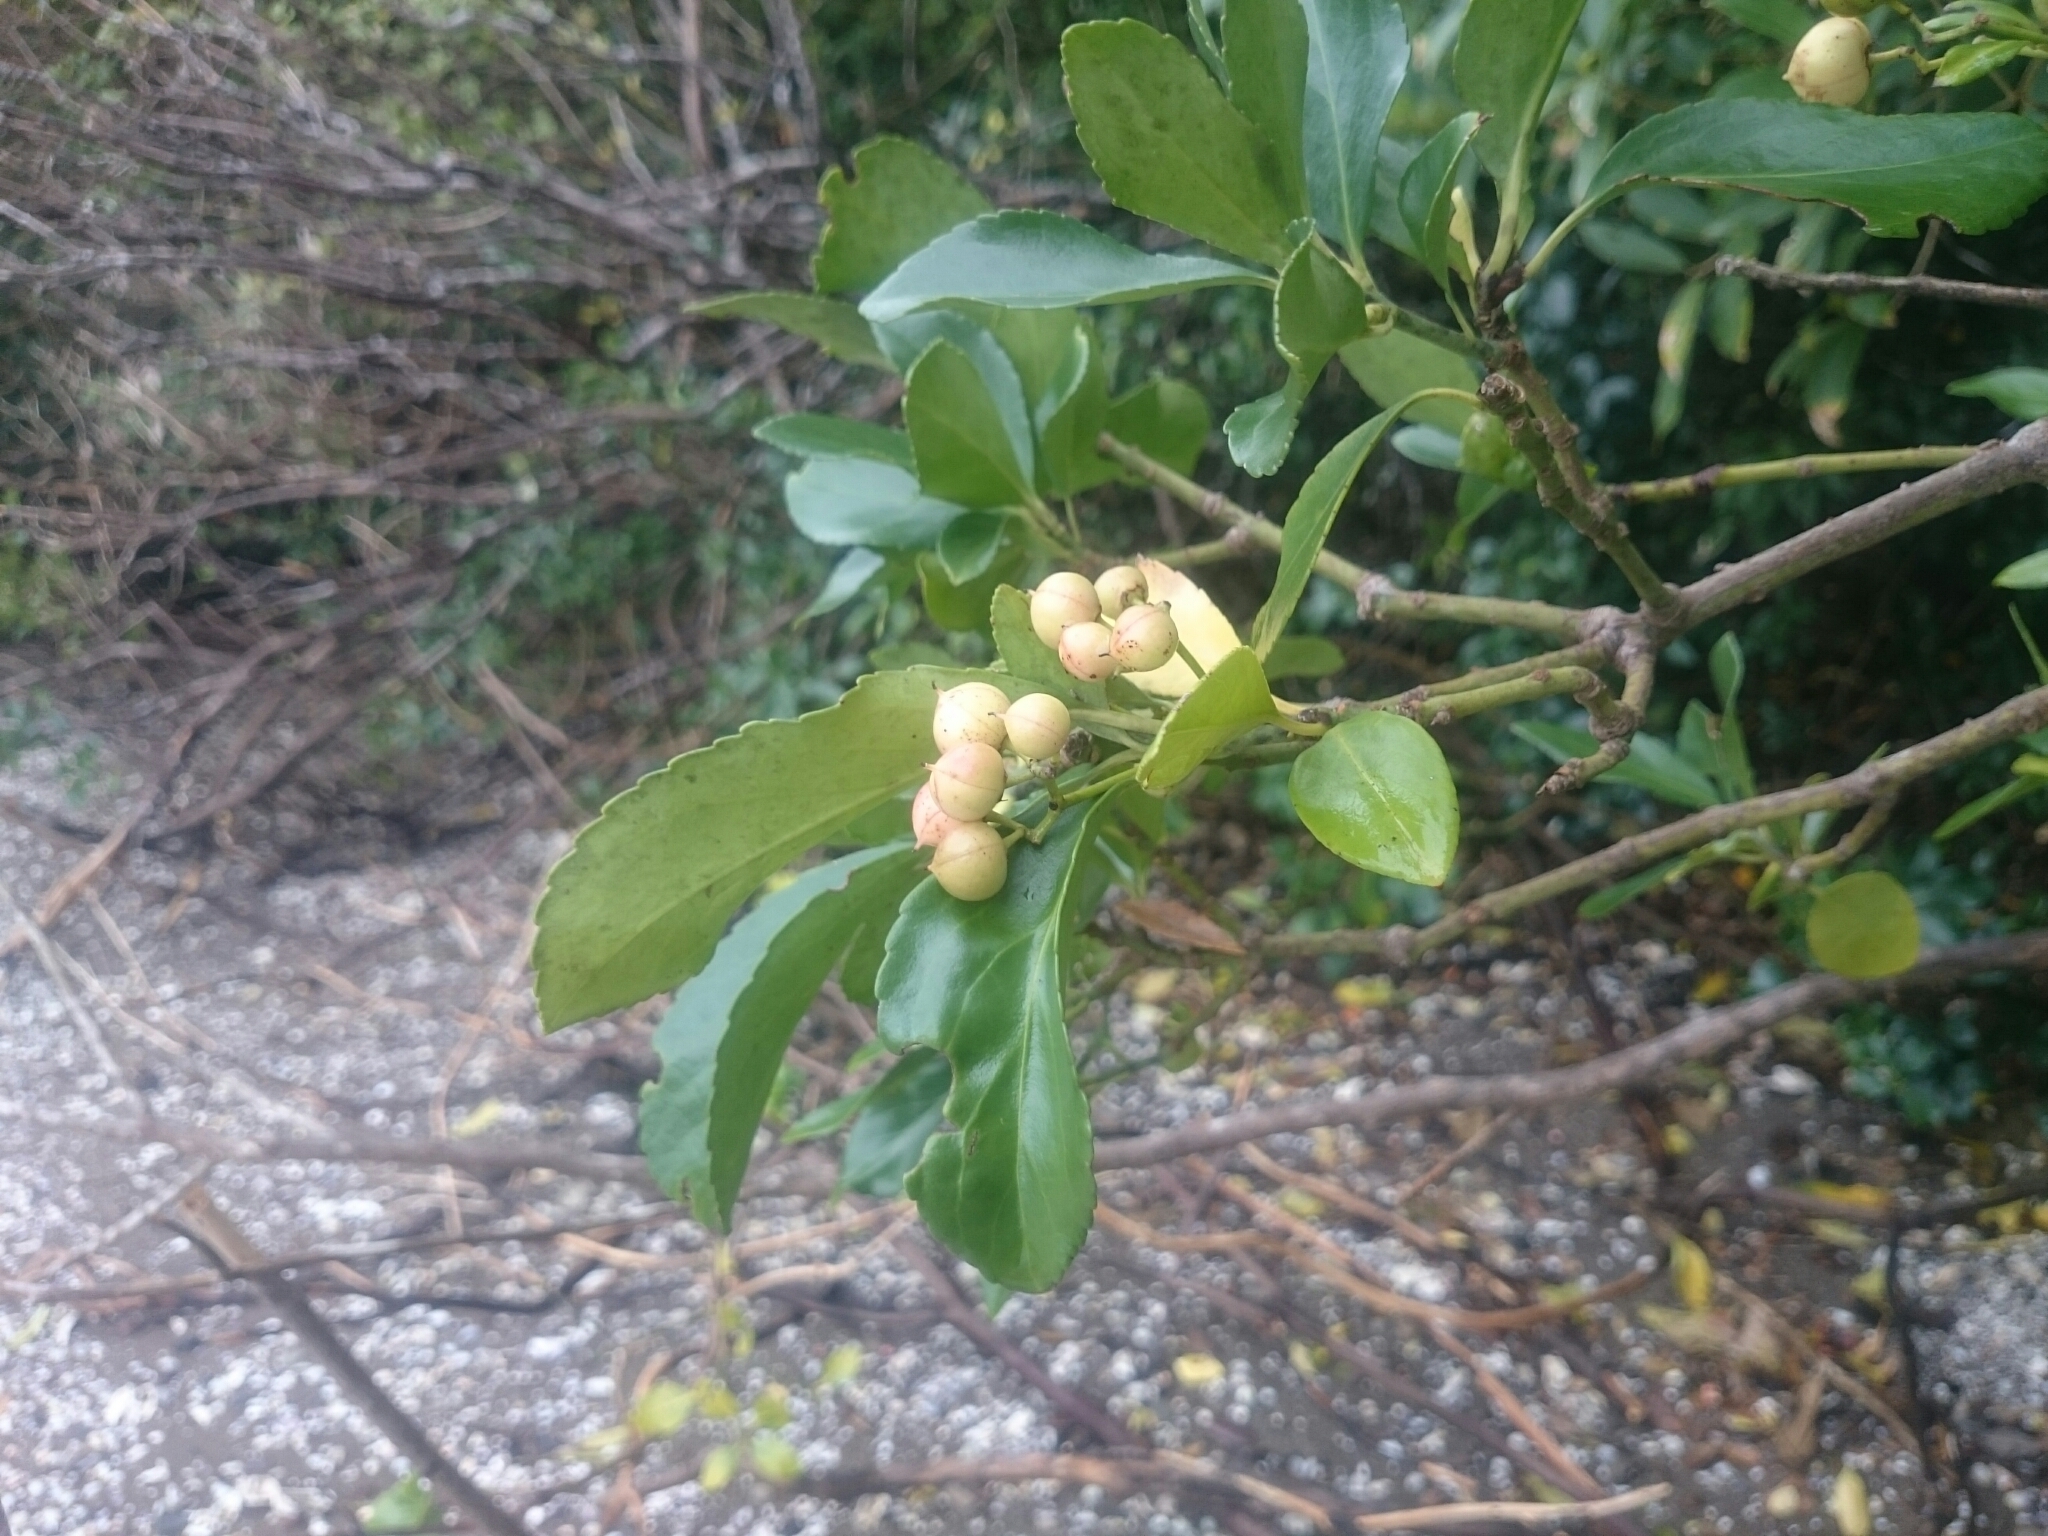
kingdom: Plantae
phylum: Tracheophyta
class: Magnoliopsida
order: Celastrales
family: Celastraceae
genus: Euonymus
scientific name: Euonymus japonicus
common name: Japanese spindletree
